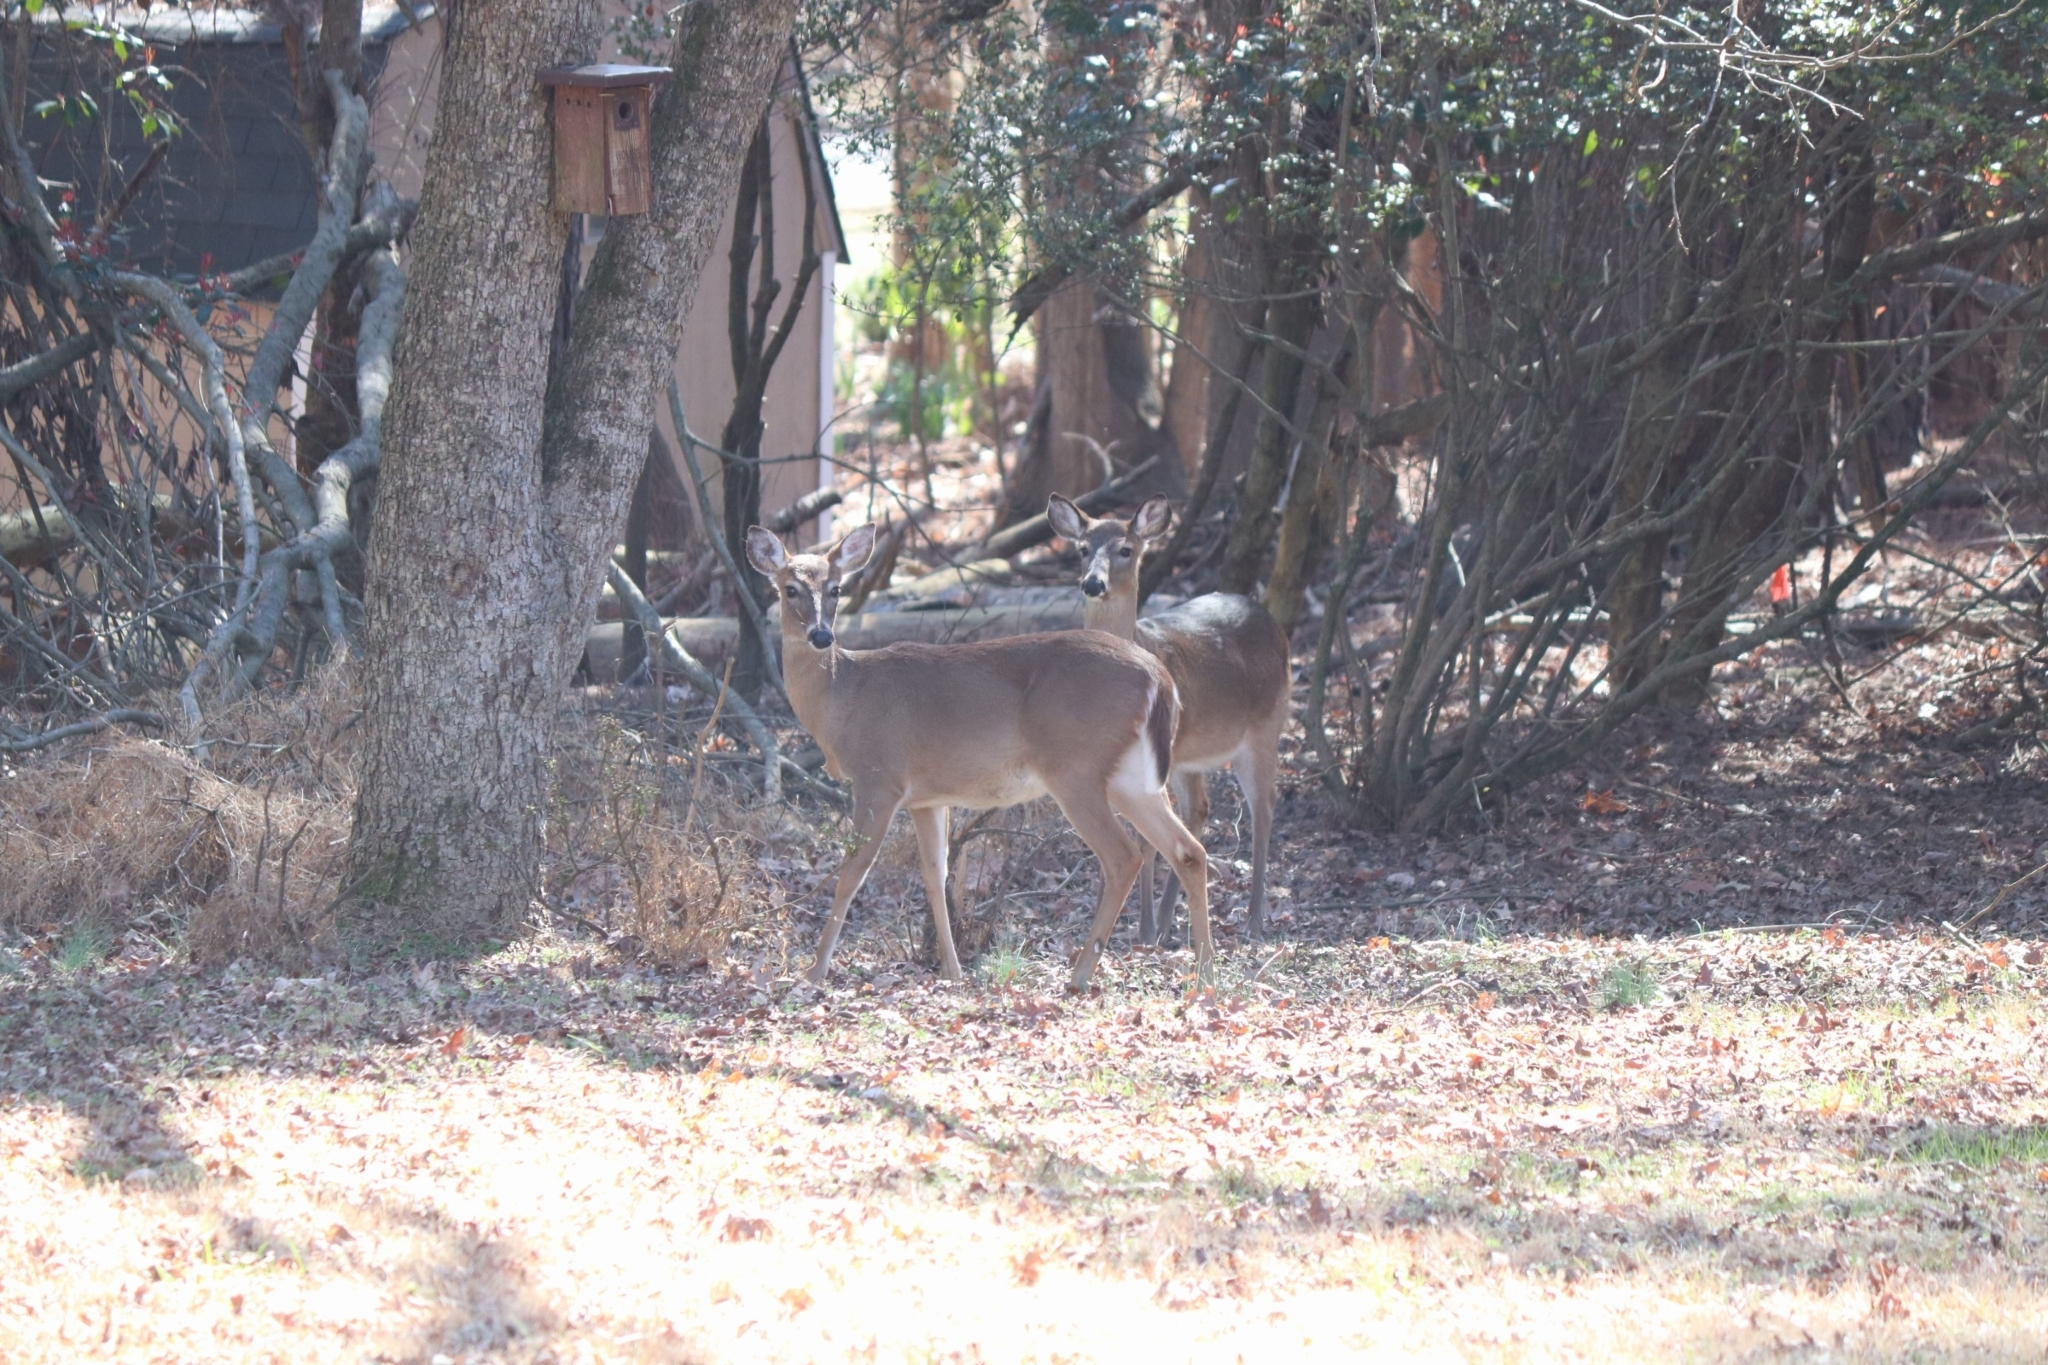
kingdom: Animalia
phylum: Chordata
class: Mammalia
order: Artiodactyla
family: Cervidae
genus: Odocoileus
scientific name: Odocoileus virginianus
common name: White-tailed deer
